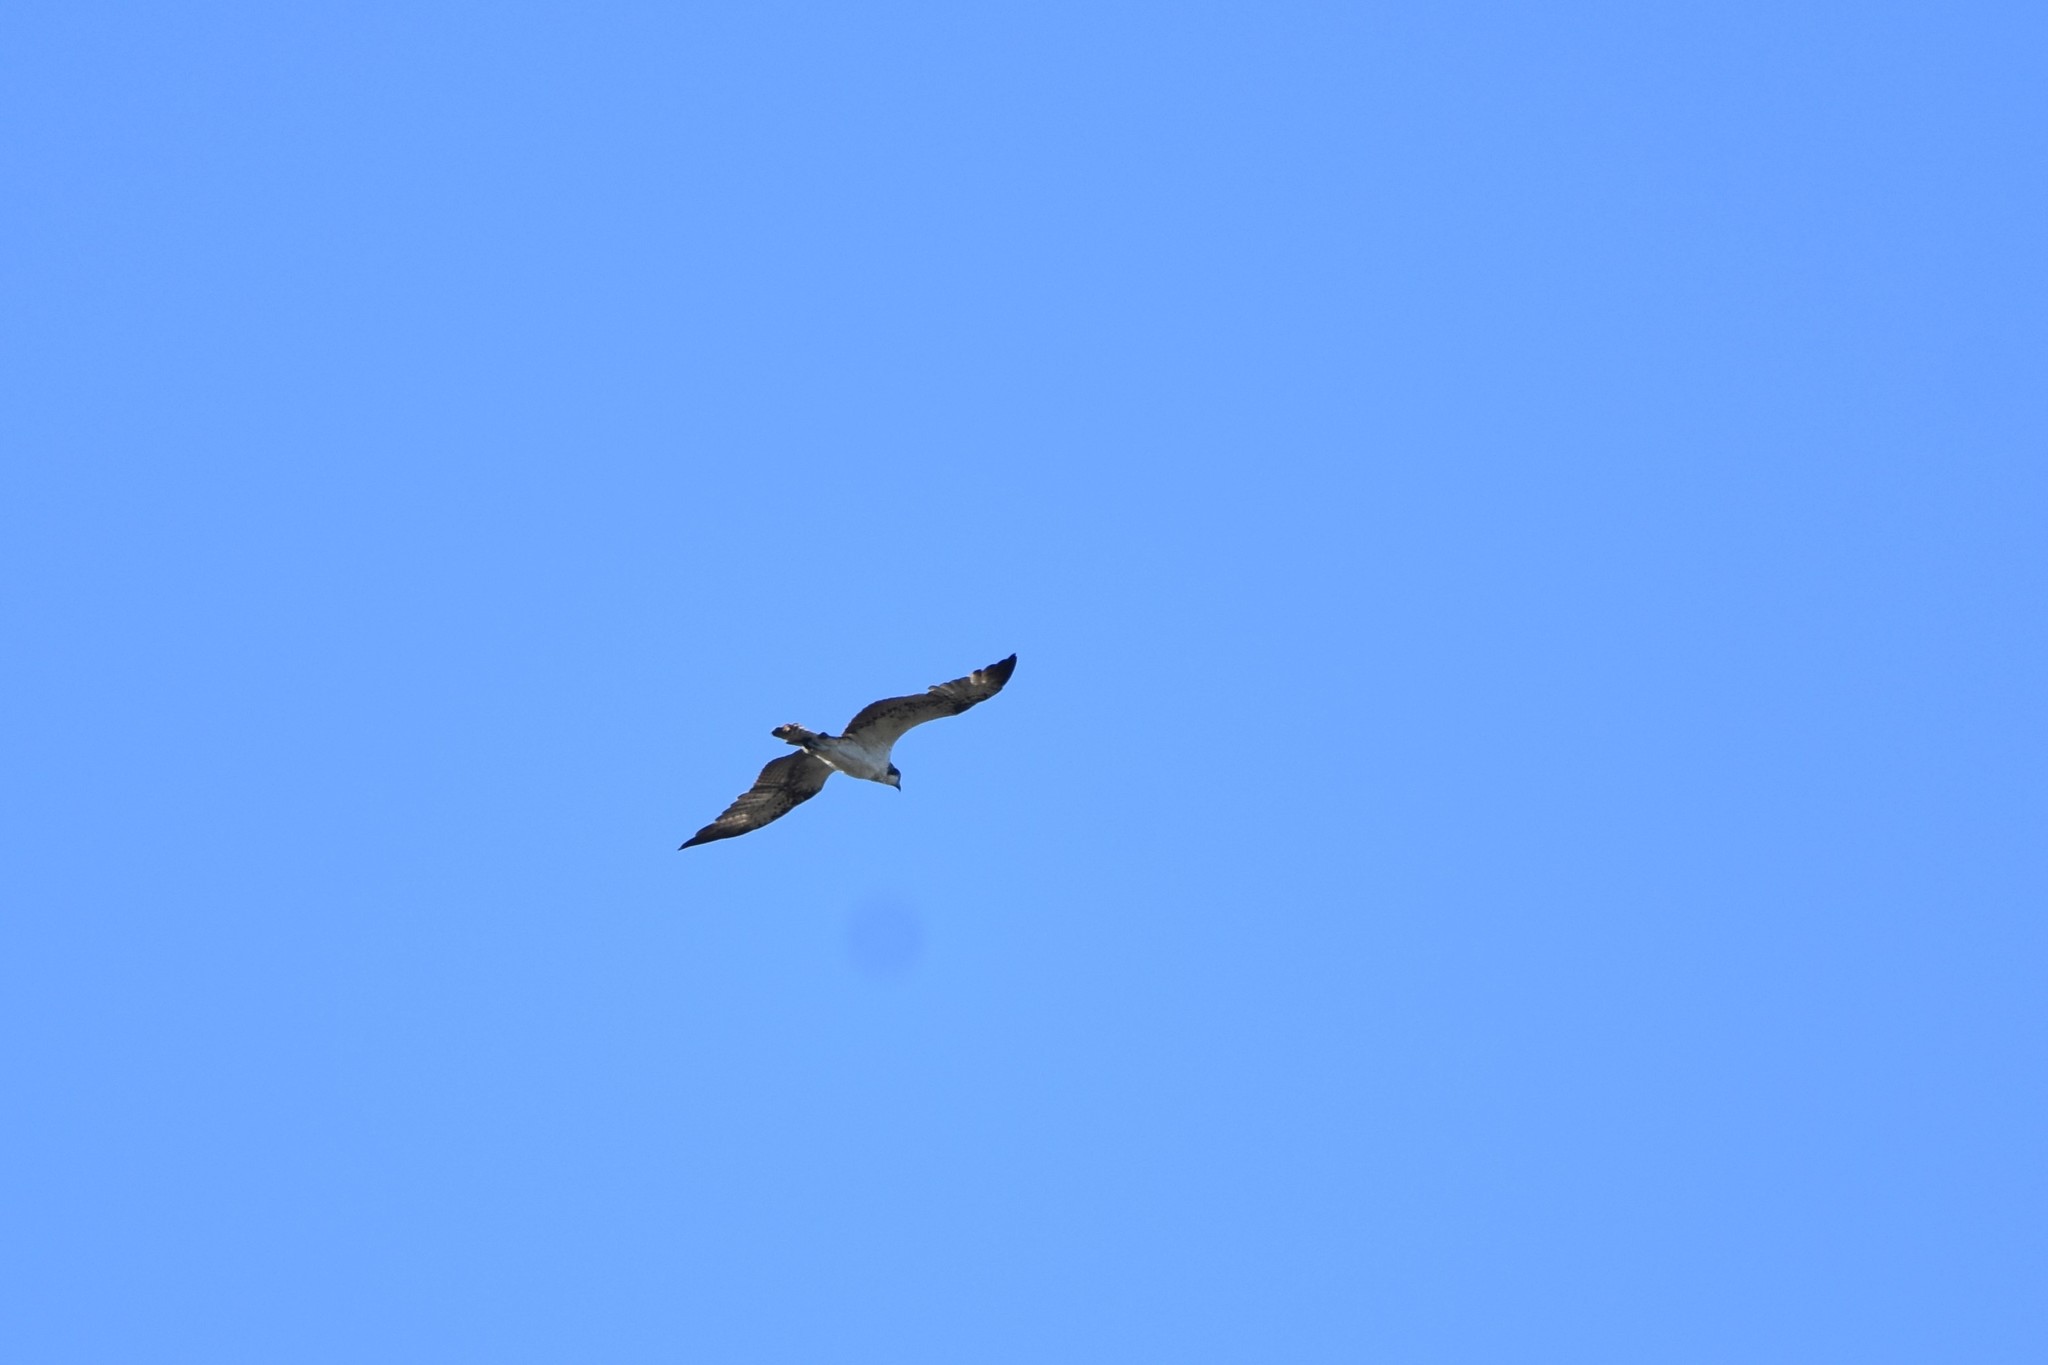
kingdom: Animalia
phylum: Chordata
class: Aves
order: Accipitriformes
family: Pandionidae
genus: Pandion
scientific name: Pandion haliaetus
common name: Osprey
